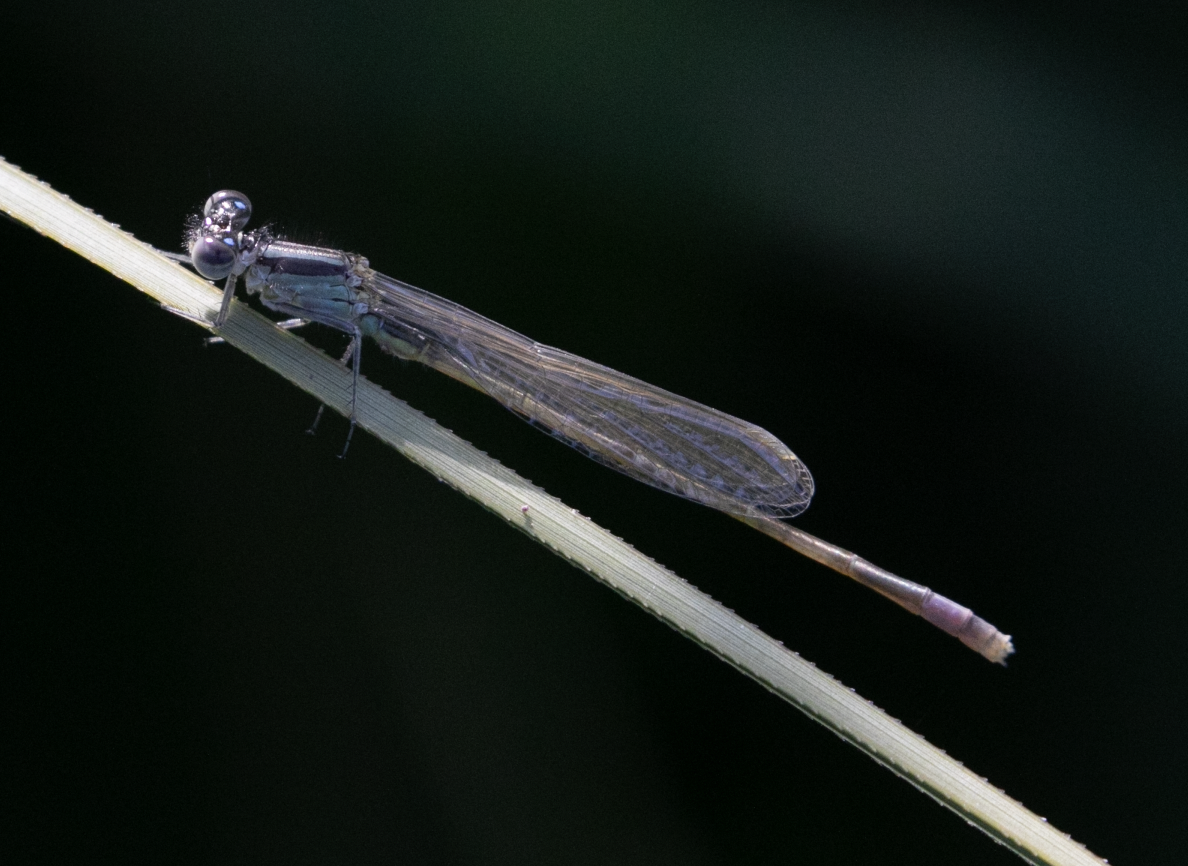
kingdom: Animalia
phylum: Arthropoda
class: Insecta
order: Odonata
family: Coenagrionidae
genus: Ischnura
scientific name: Ischnura elegans
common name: Blue-tailed damselfly
